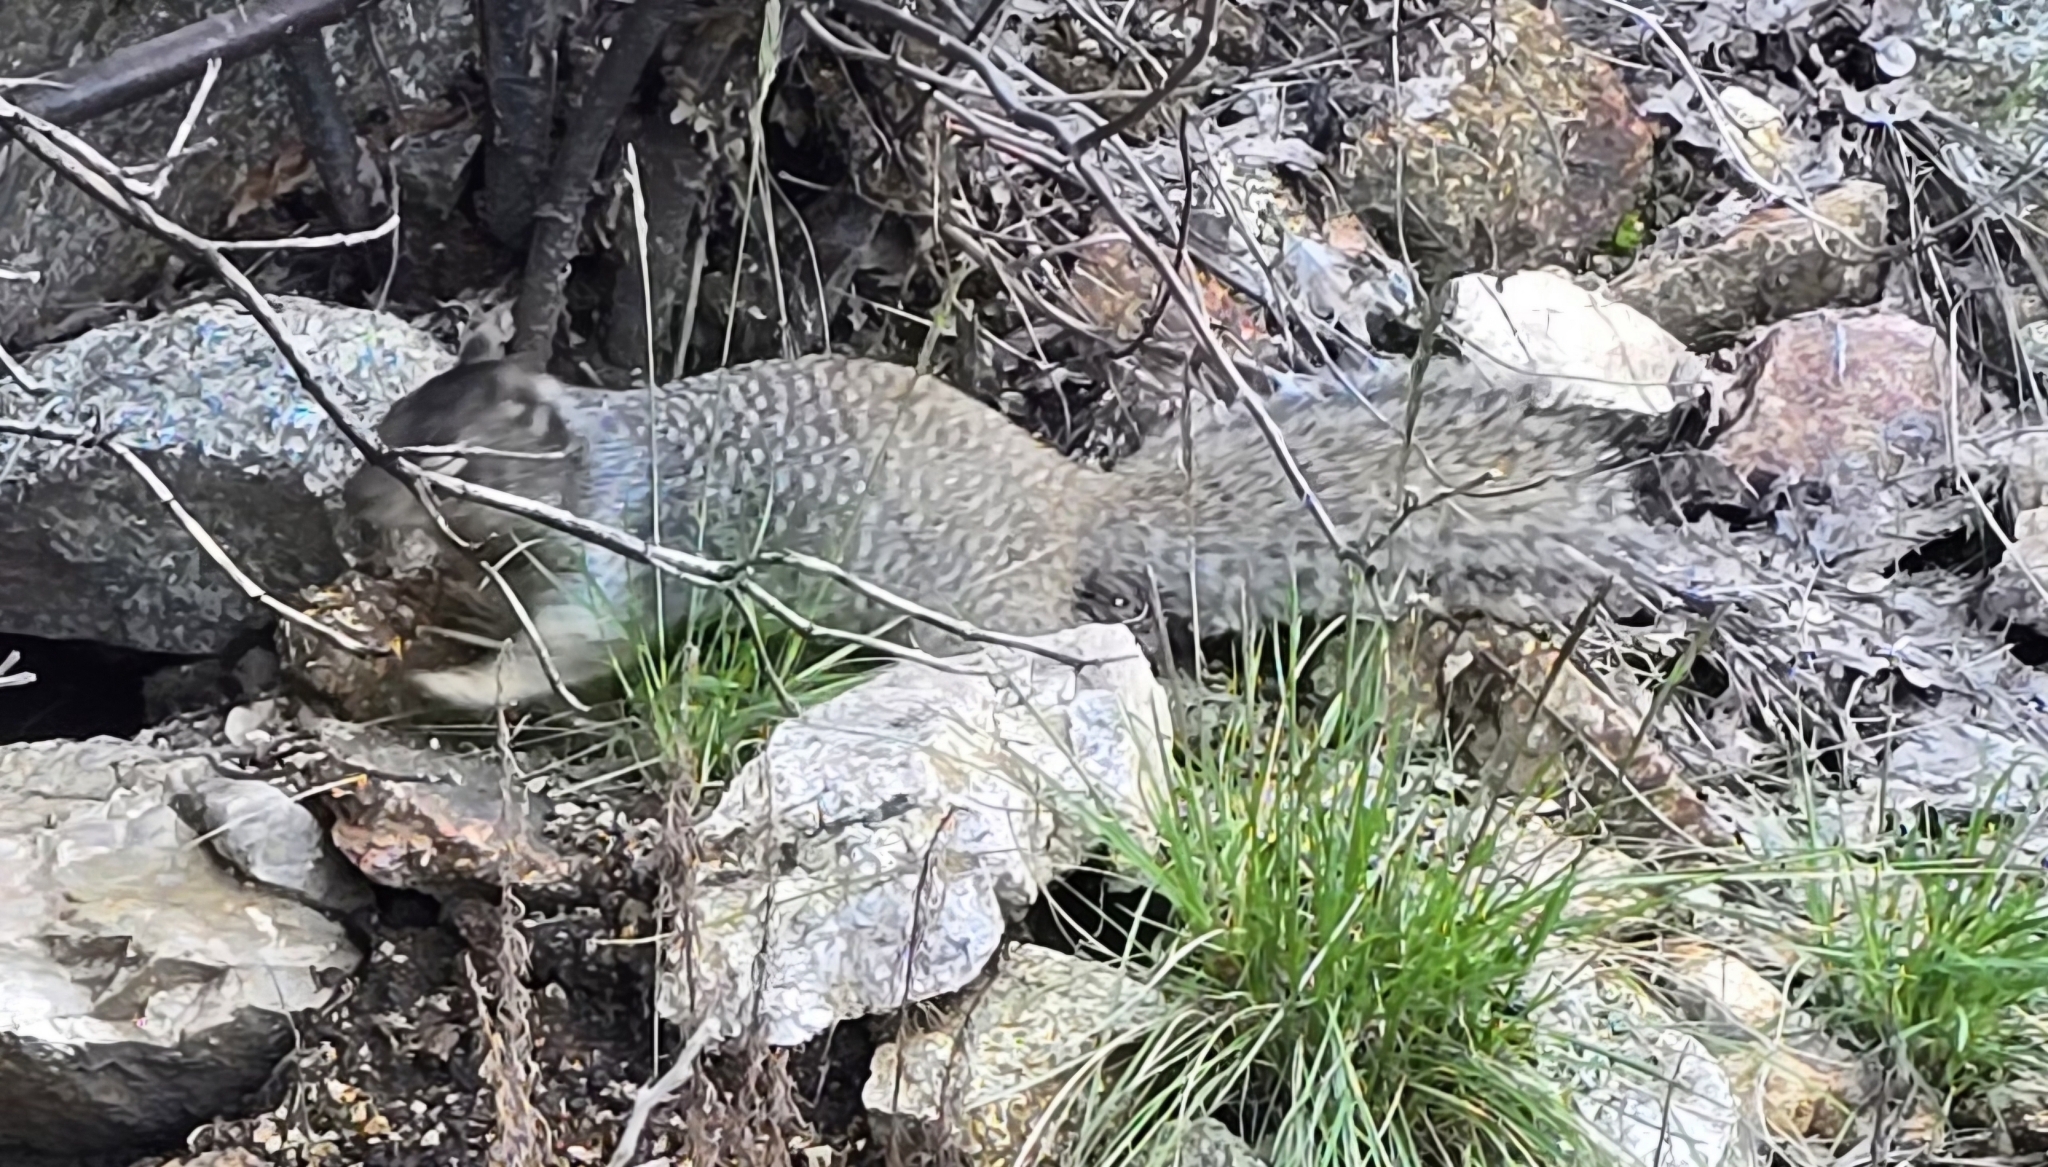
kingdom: Animalia
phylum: Chordata
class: Mammalia
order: Rodentia
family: Sciuridae
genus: Otospermophilus
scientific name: Otospermophilus variegatus
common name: Rock squirrel
